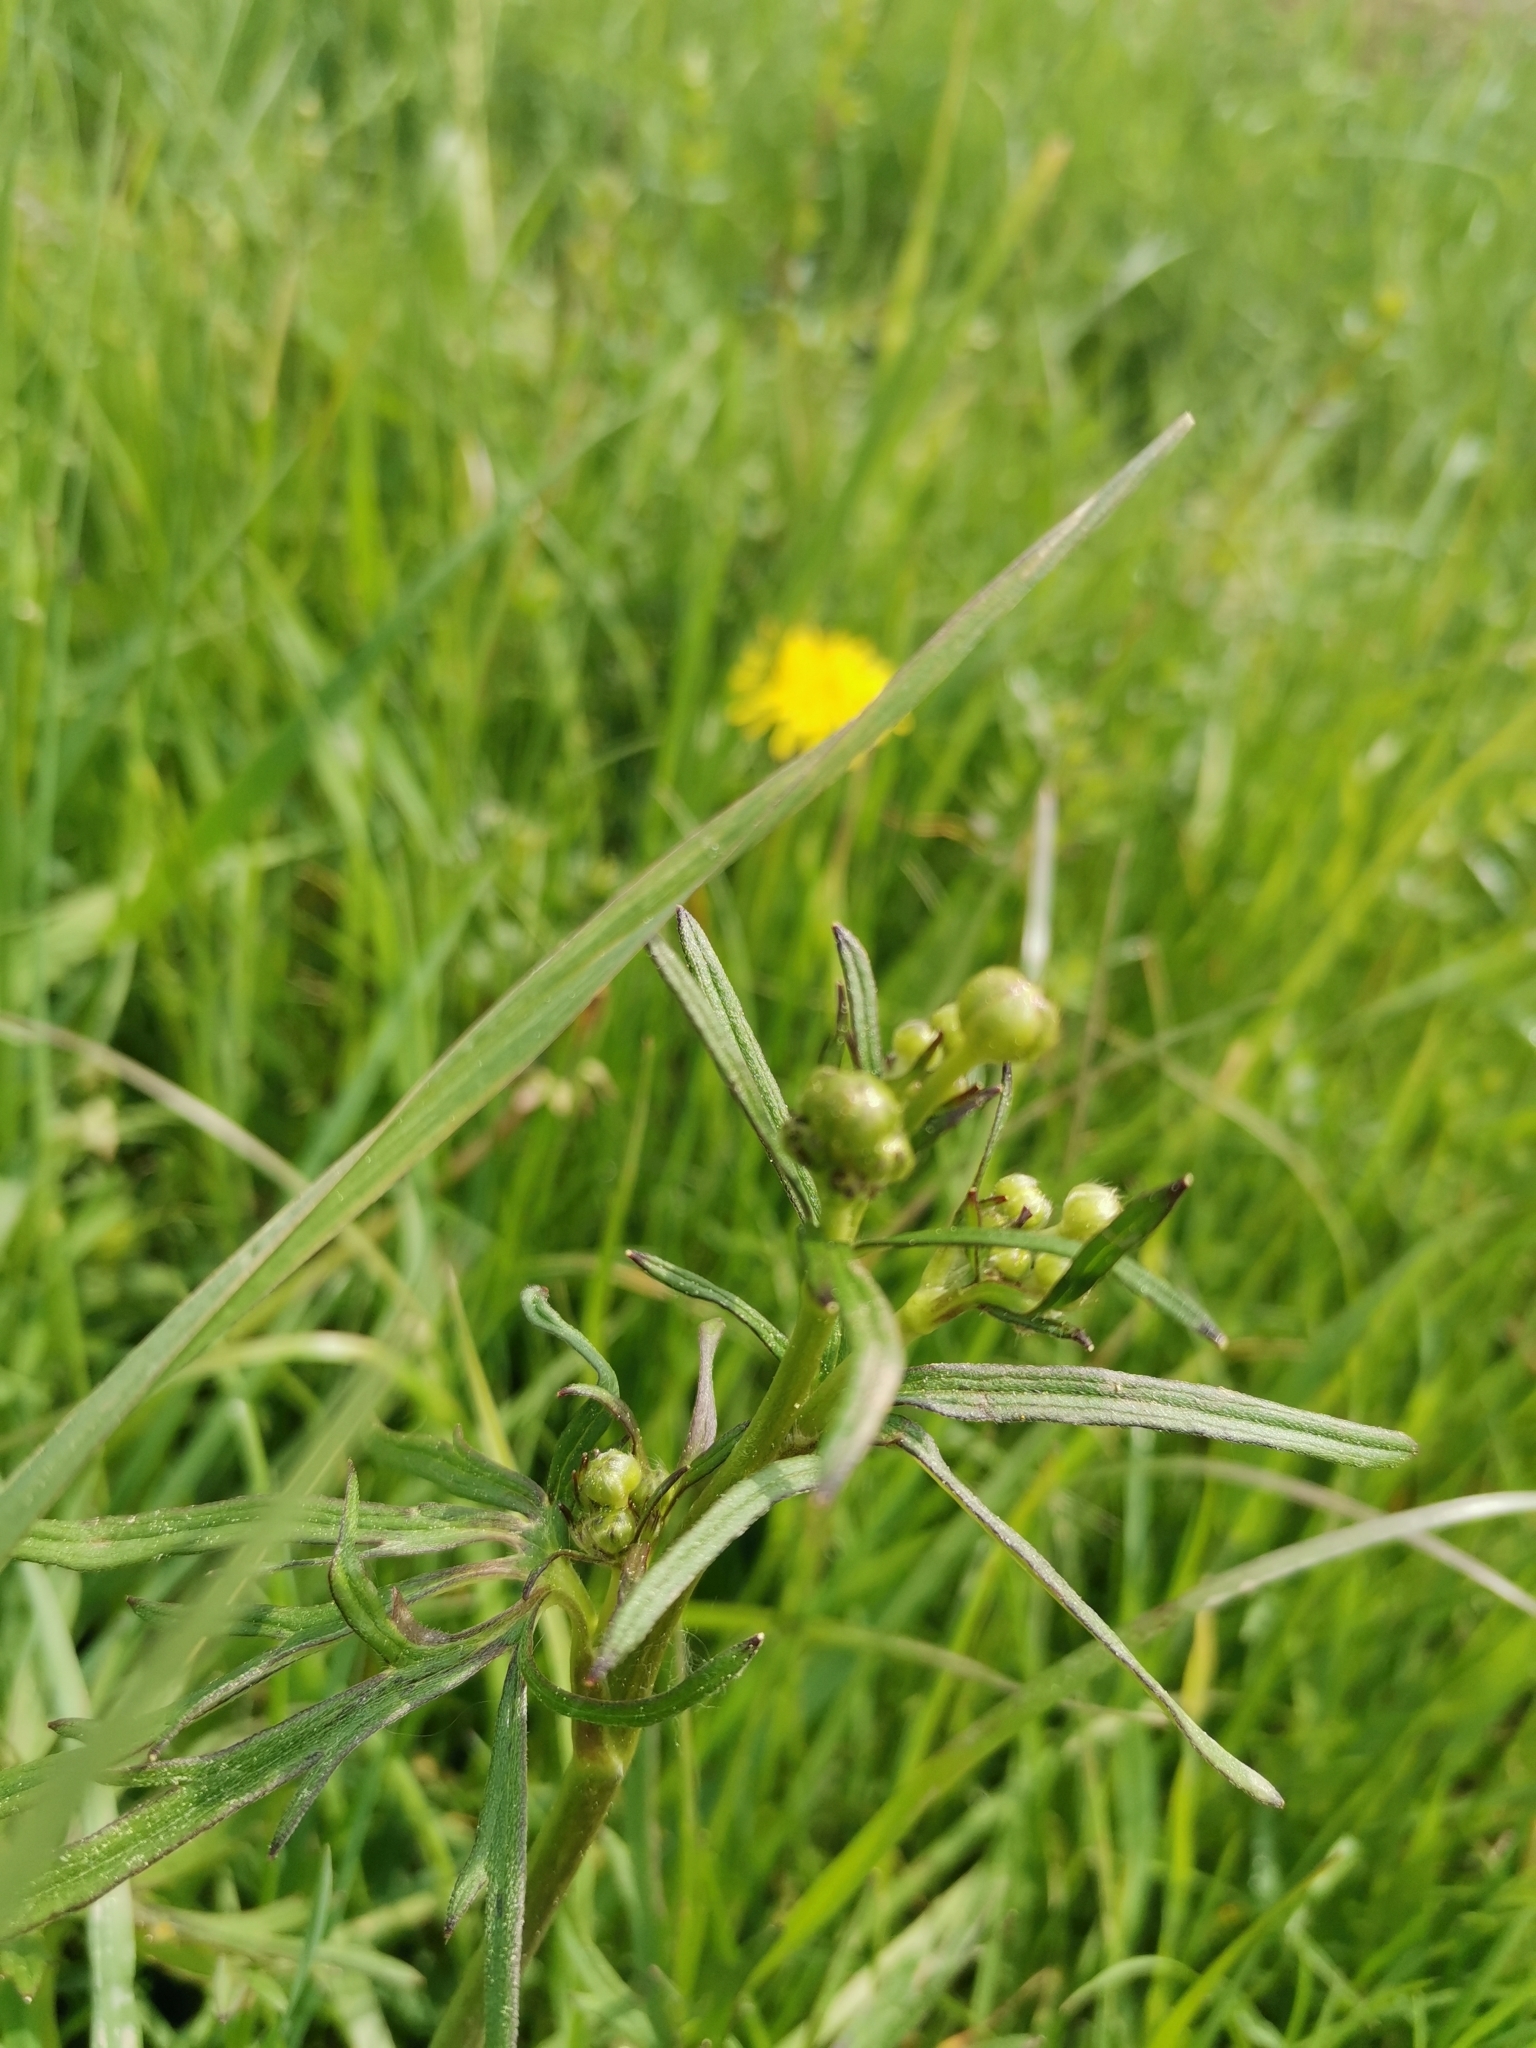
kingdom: Plantae
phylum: Tracheophyta
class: Magnoliopsida
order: Ranunculales
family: Ranunculaceae
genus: Ranunculus
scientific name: Ranunculus acris
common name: Meadow buttercup
